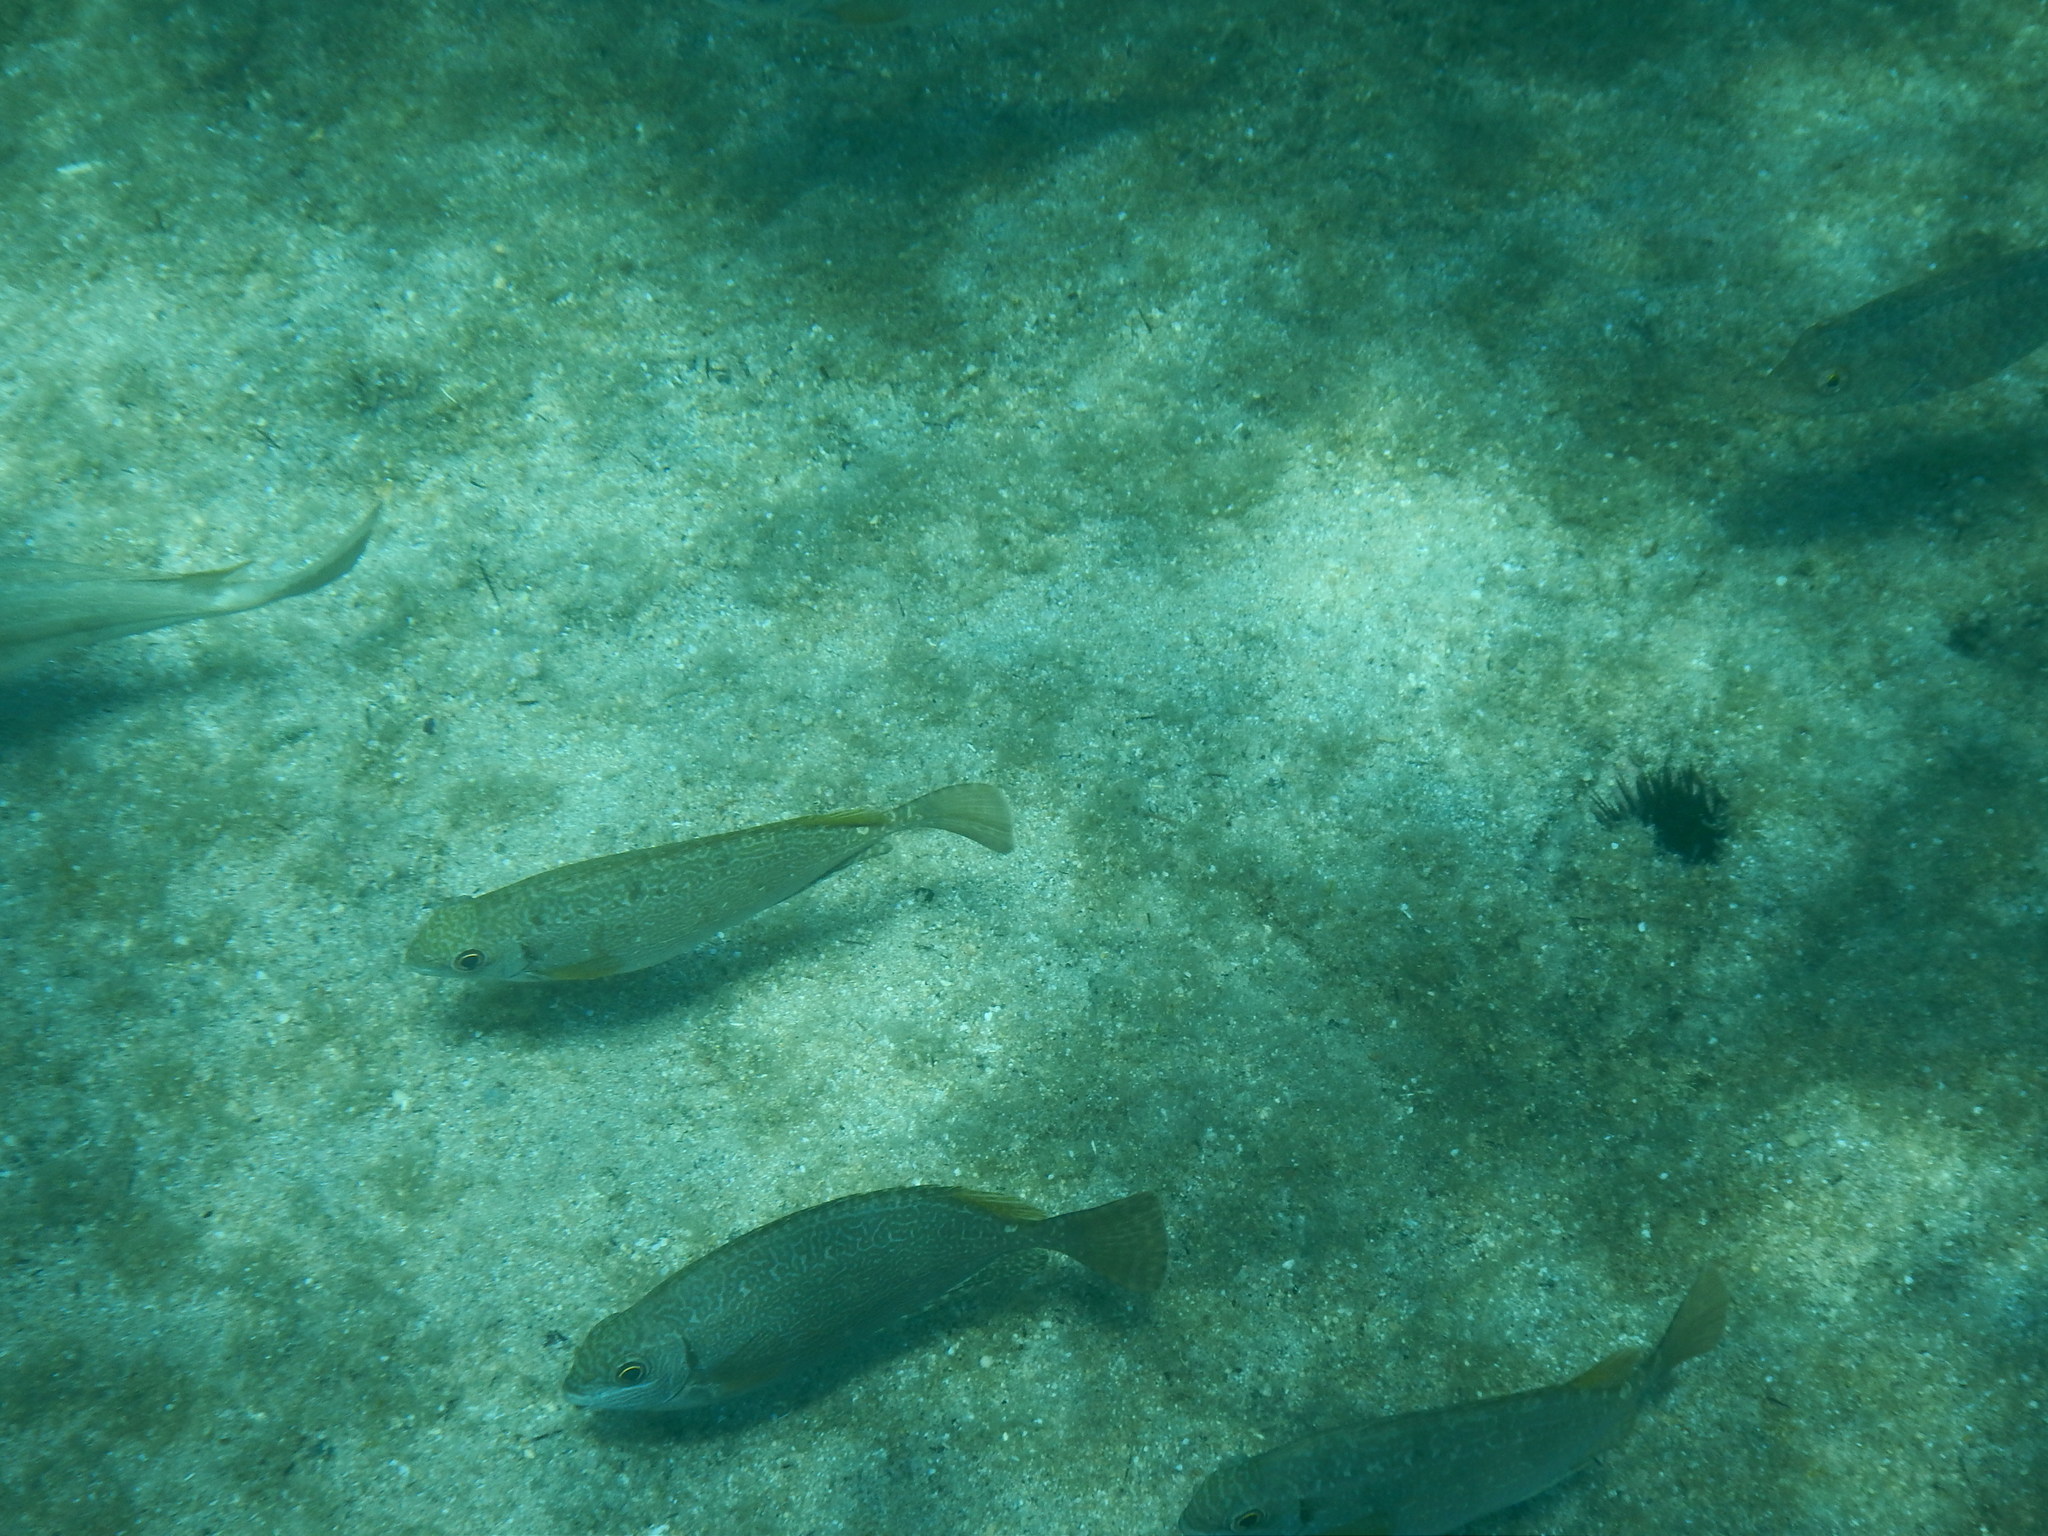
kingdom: Animalia
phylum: Chordata
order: Perciformes
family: Siganidae
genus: Siganus
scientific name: Siganus luridus
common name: Dusky spinefoot
